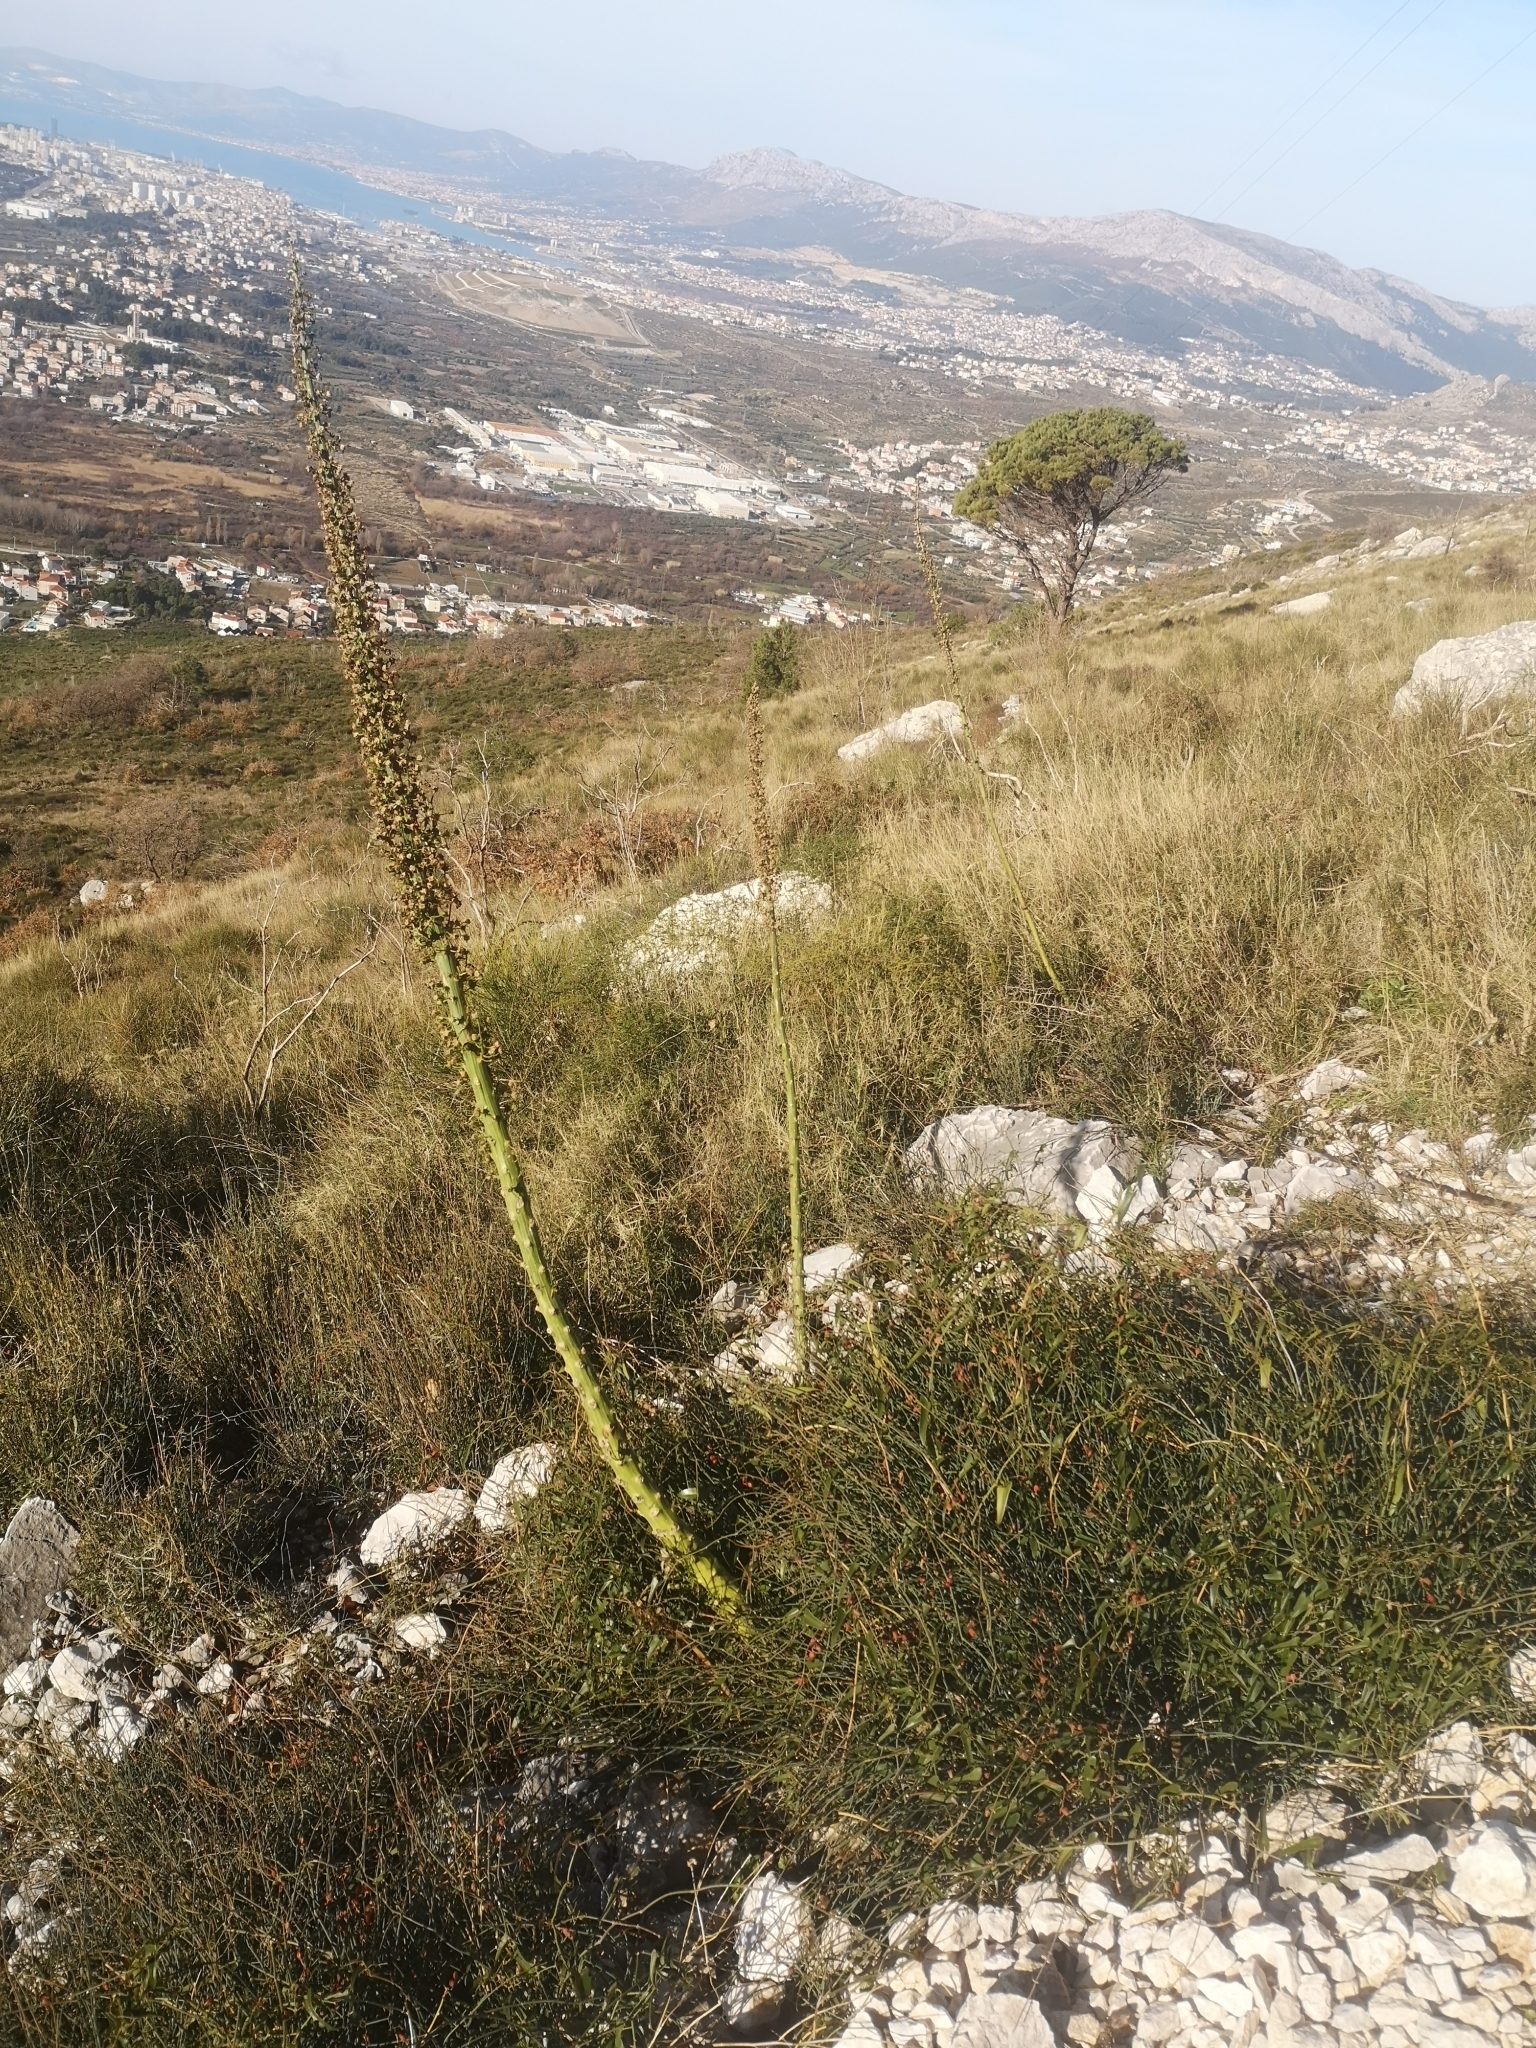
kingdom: Plantae
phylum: Tracheophyta
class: Magnoliopsida
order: Asterales
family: Campanulaceae
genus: Campanula
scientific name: Campanula pyramidalis
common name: Chimney bellflower
